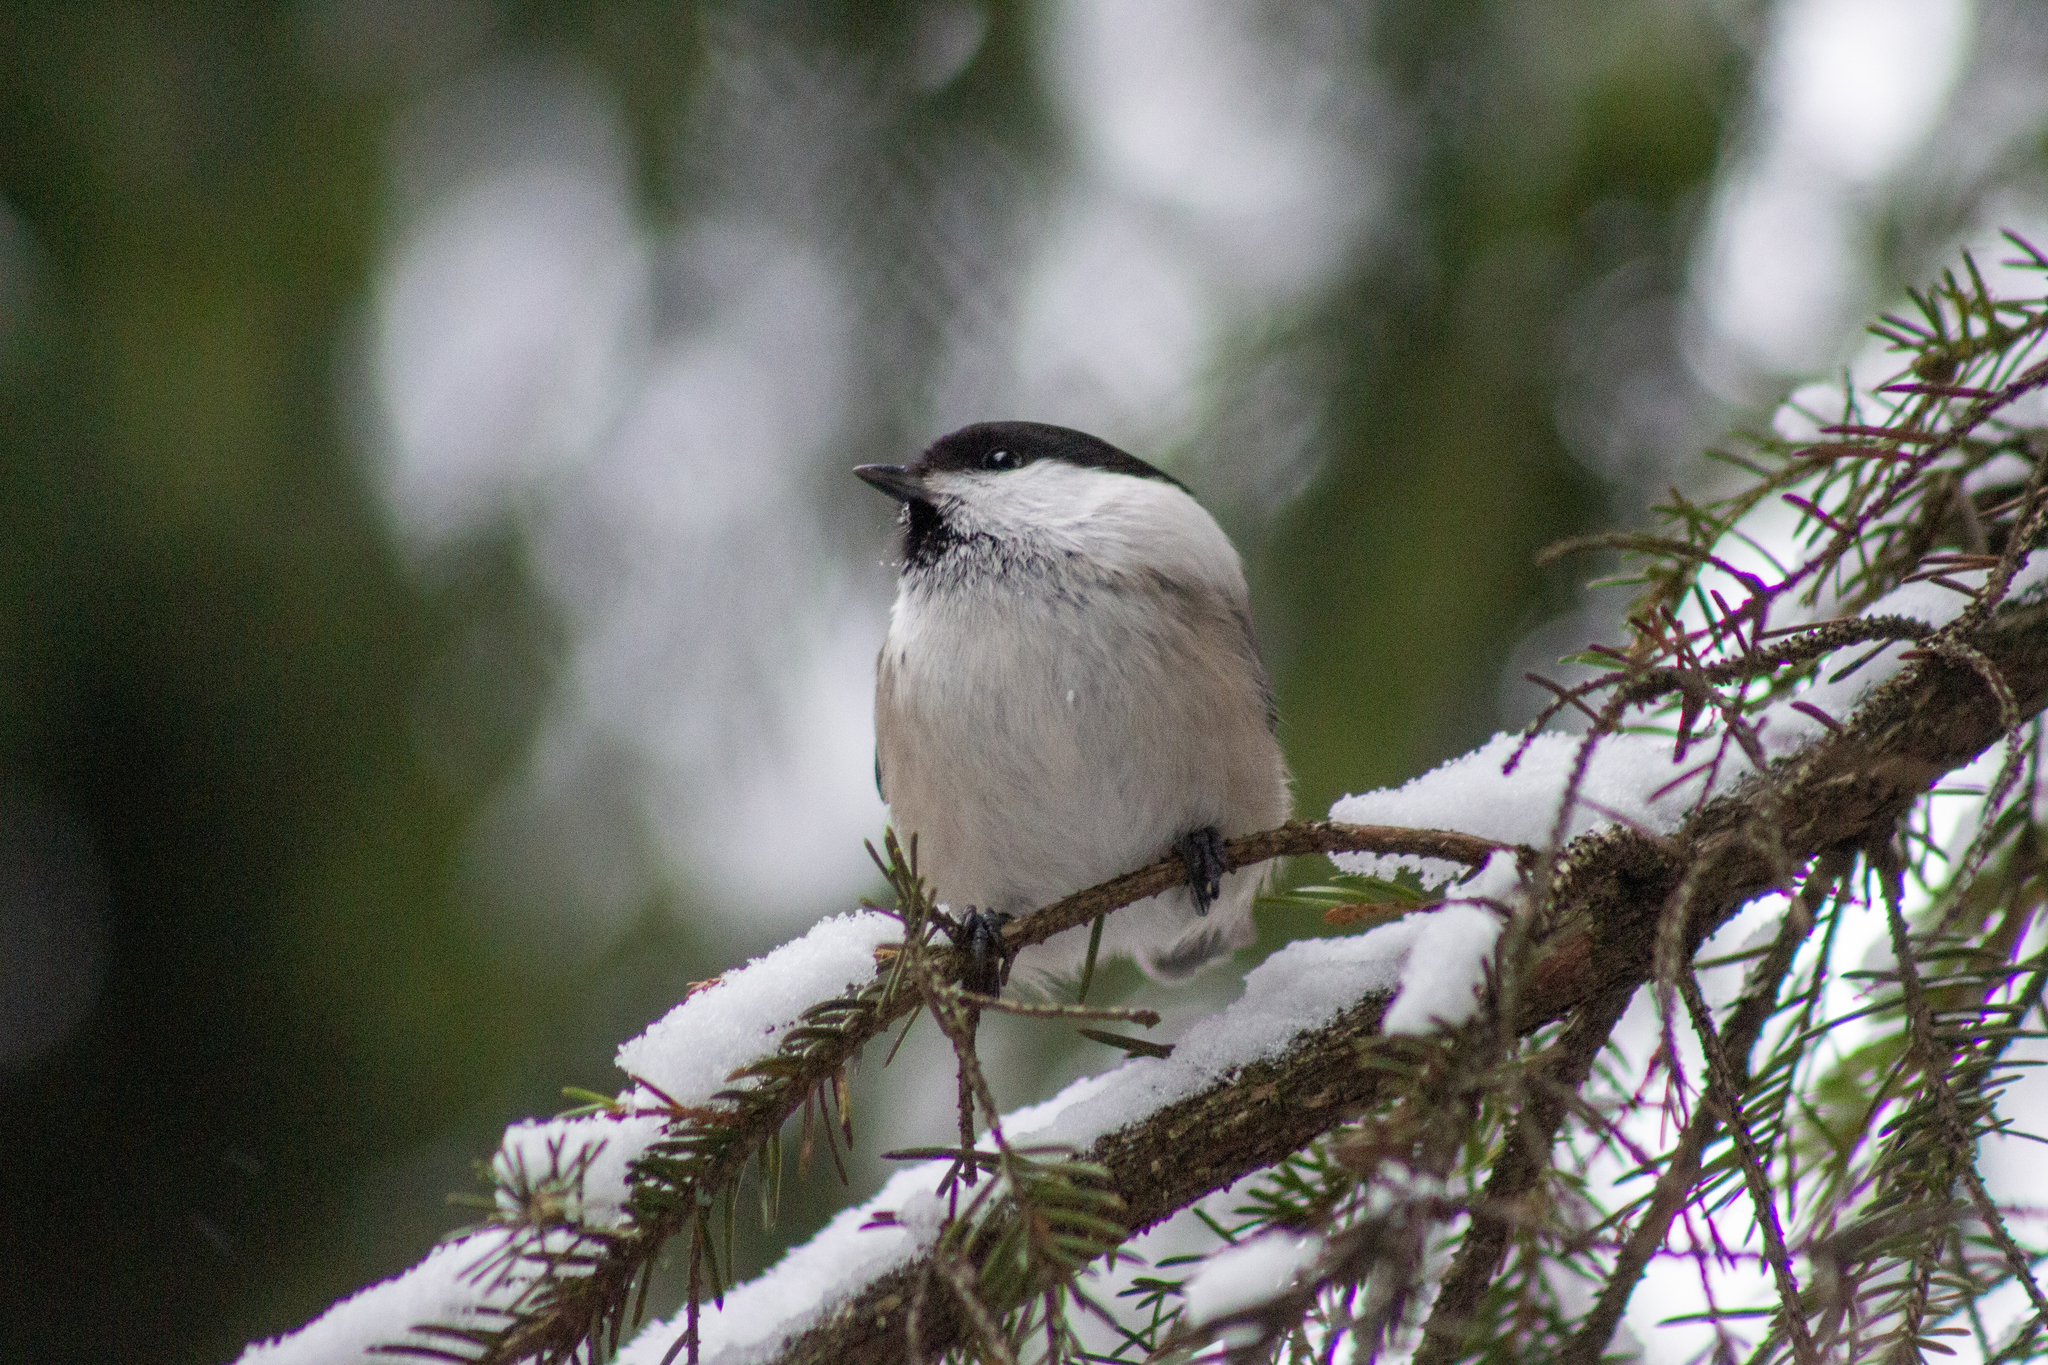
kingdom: Animalia
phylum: Chordata
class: Aves
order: Passeriformes
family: Paridae
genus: Poecile
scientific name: Poecile montanus
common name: Willow tit
